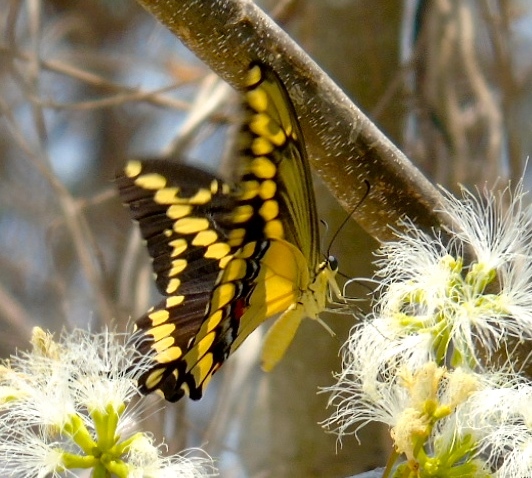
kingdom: Animalia
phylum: Arthropoda
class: Insecta
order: Lepidoptera
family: Papilionidae
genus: Papilio
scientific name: Papilio rumiko
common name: Western giant swallowtail
